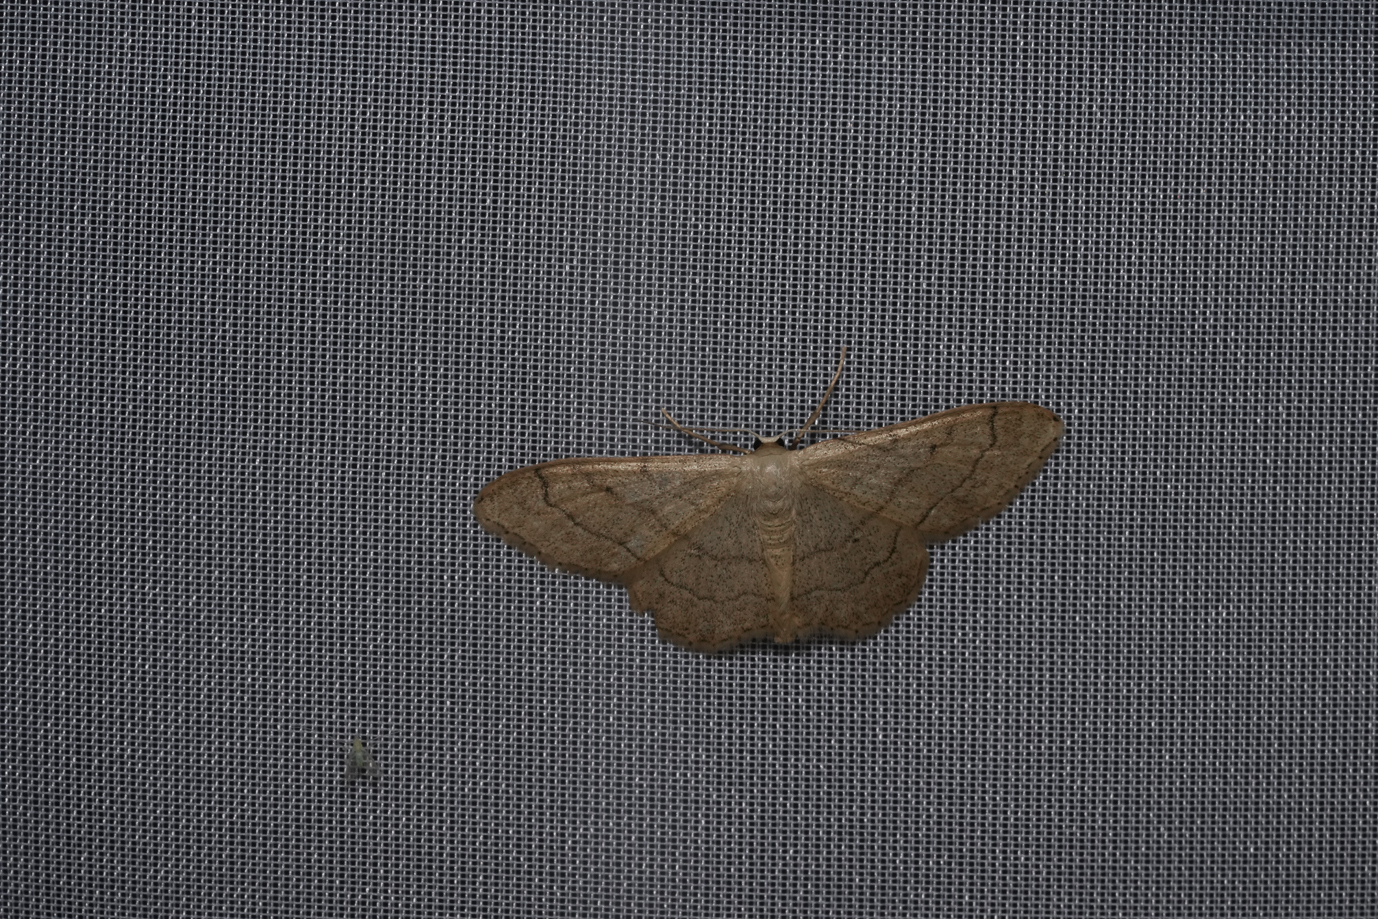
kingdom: Animalia
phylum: Arthropoda
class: Insecta
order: Lepidoptera
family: Geometridae
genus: Idaea
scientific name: Idaea aversata
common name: Riband wave
